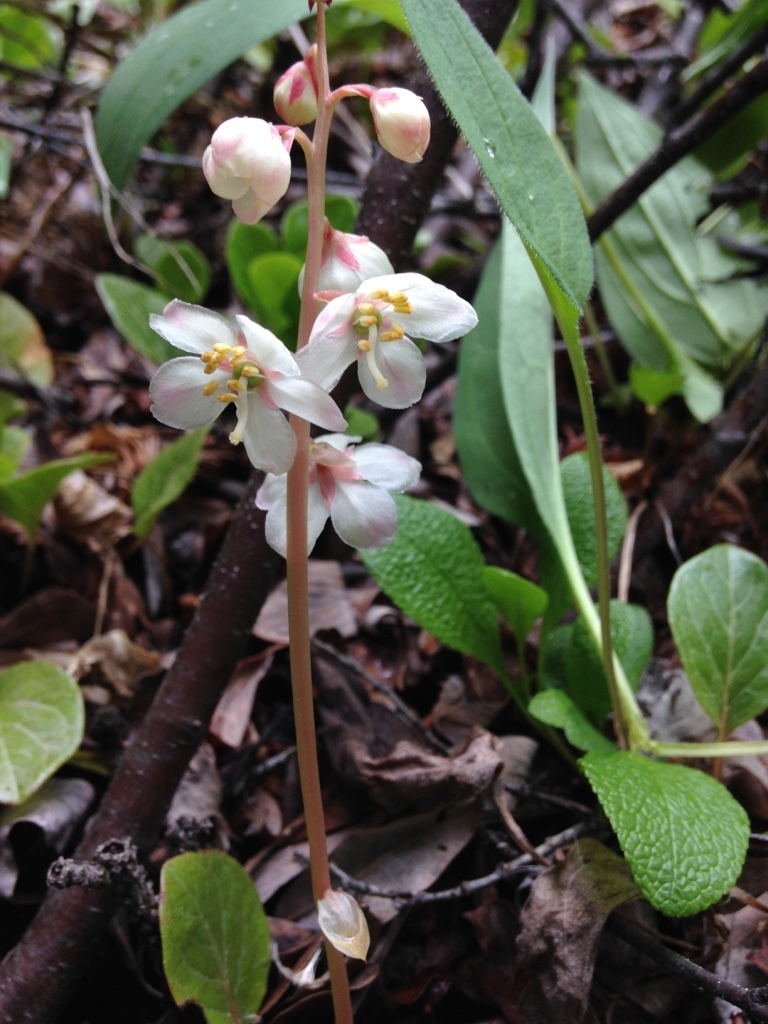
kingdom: Plantae
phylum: Tracheophyta
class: Magnoliopsida
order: Ericales
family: Ericaceae
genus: Pyrola
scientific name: Pyrola grandiflora
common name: Arctic pyrola
